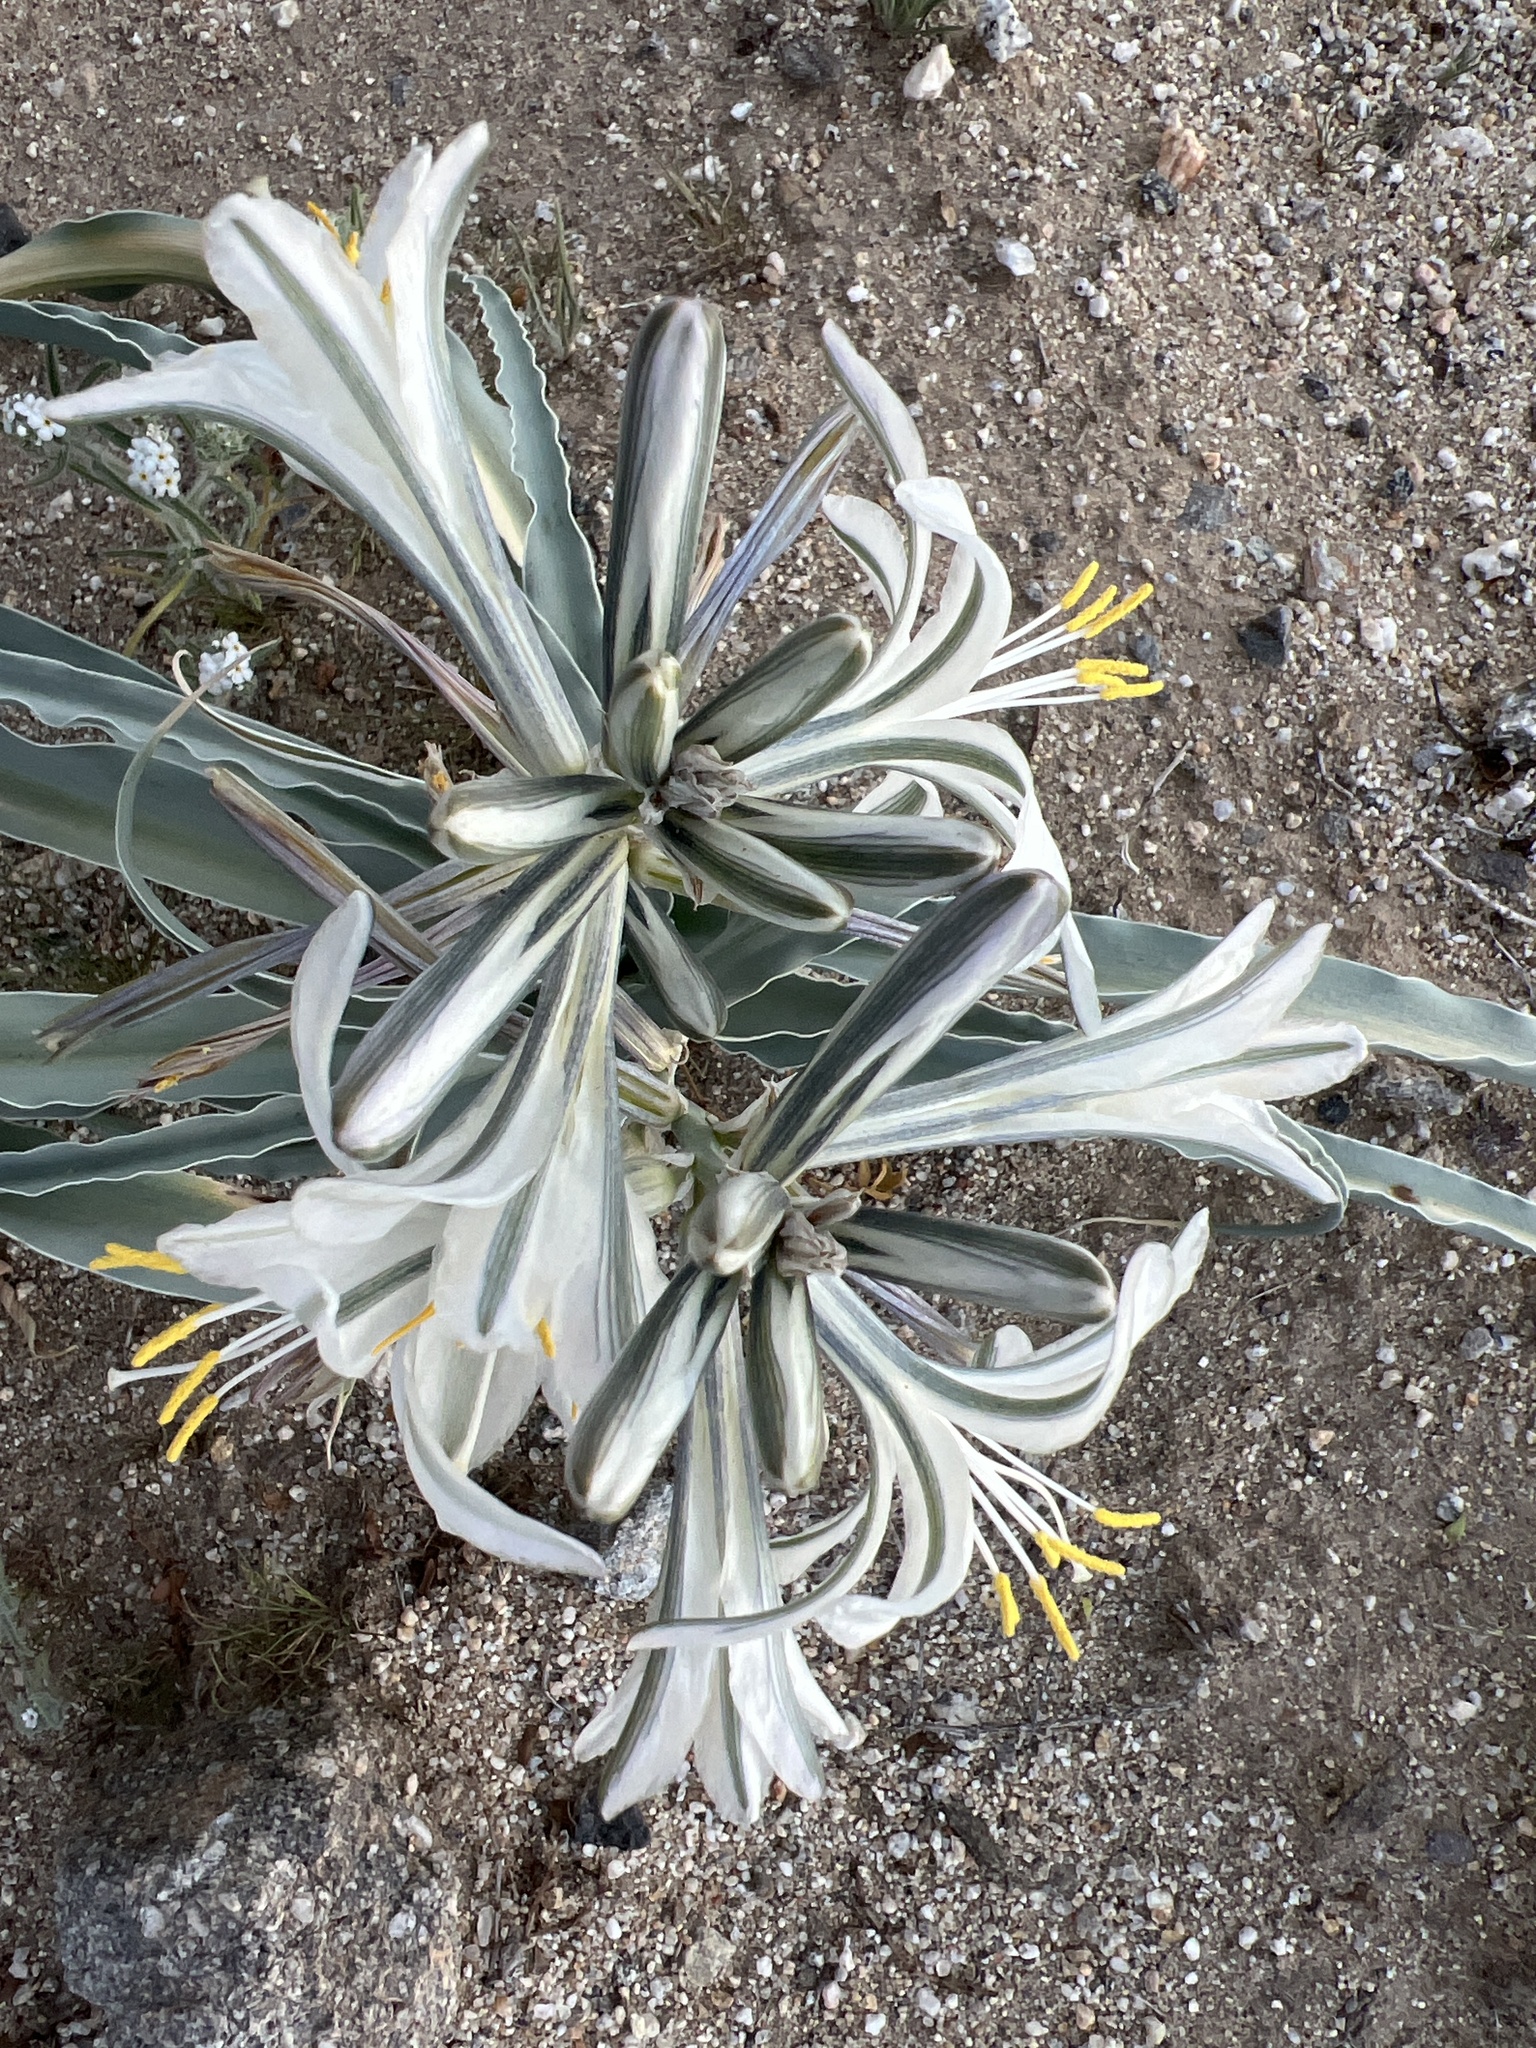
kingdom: Plantae
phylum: Tracheophyta
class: Liliopsida
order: Asparagales
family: Asparagaceae
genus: Hesperocallis
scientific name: Hesperocallis undulata
